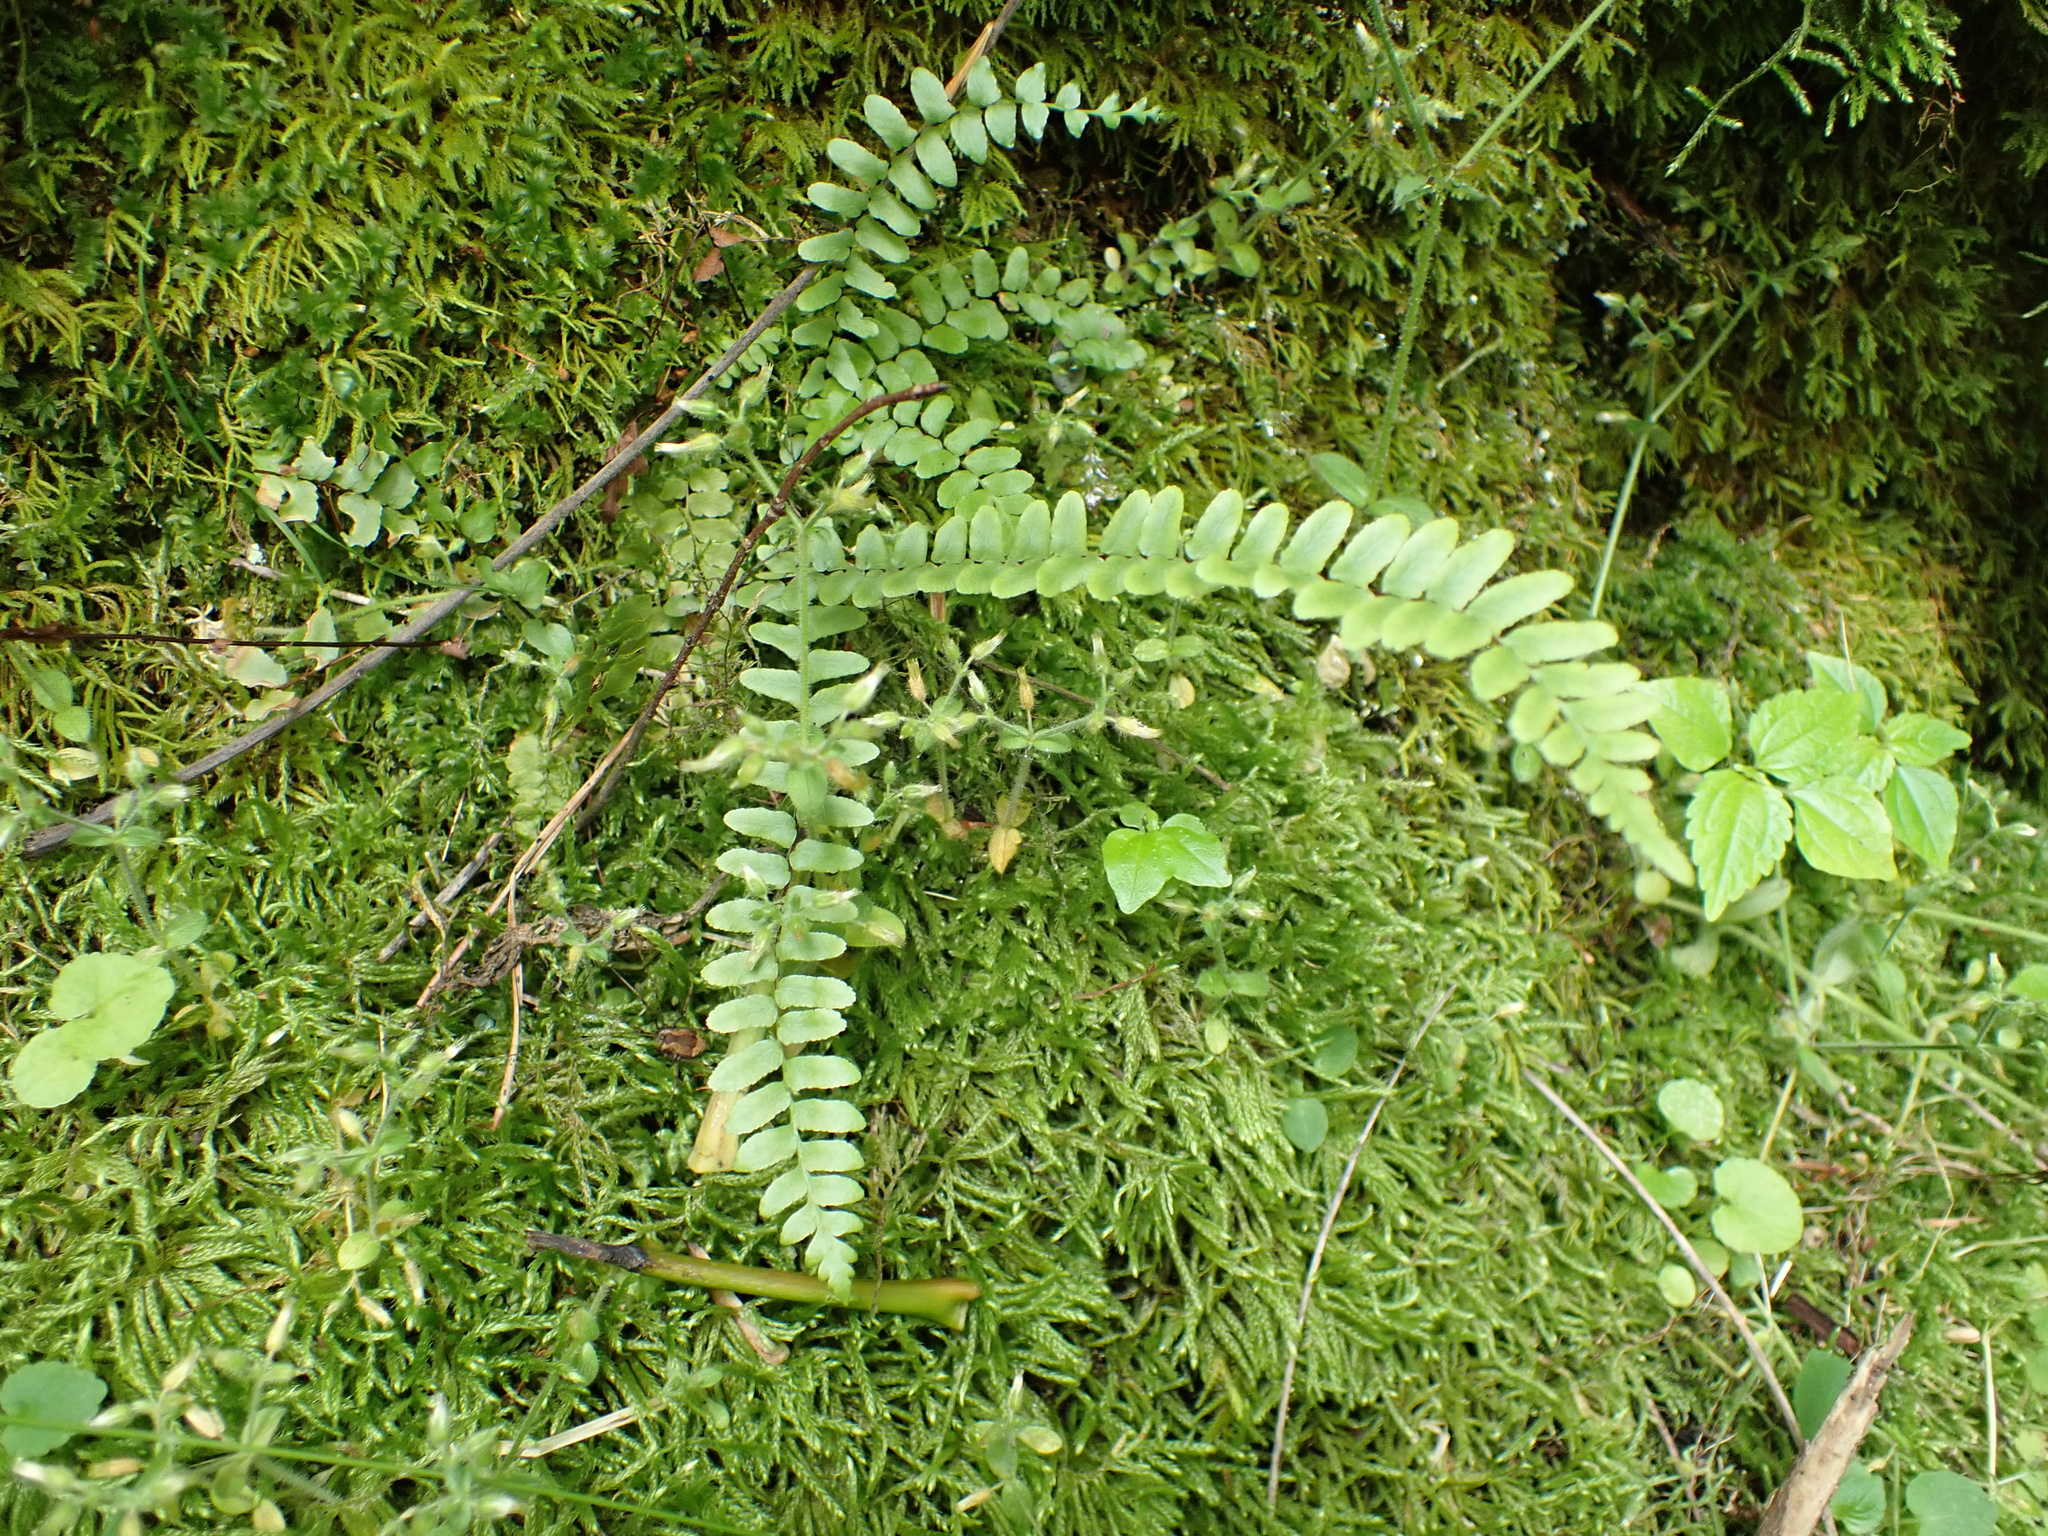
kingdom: Plantae
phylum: Tracheophyta
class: Polypodiopsida
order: Polypodiales
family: Aspleniaceae
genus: Asplenium
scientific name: Asplenium platyneuron
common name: Ebony spleenwort
